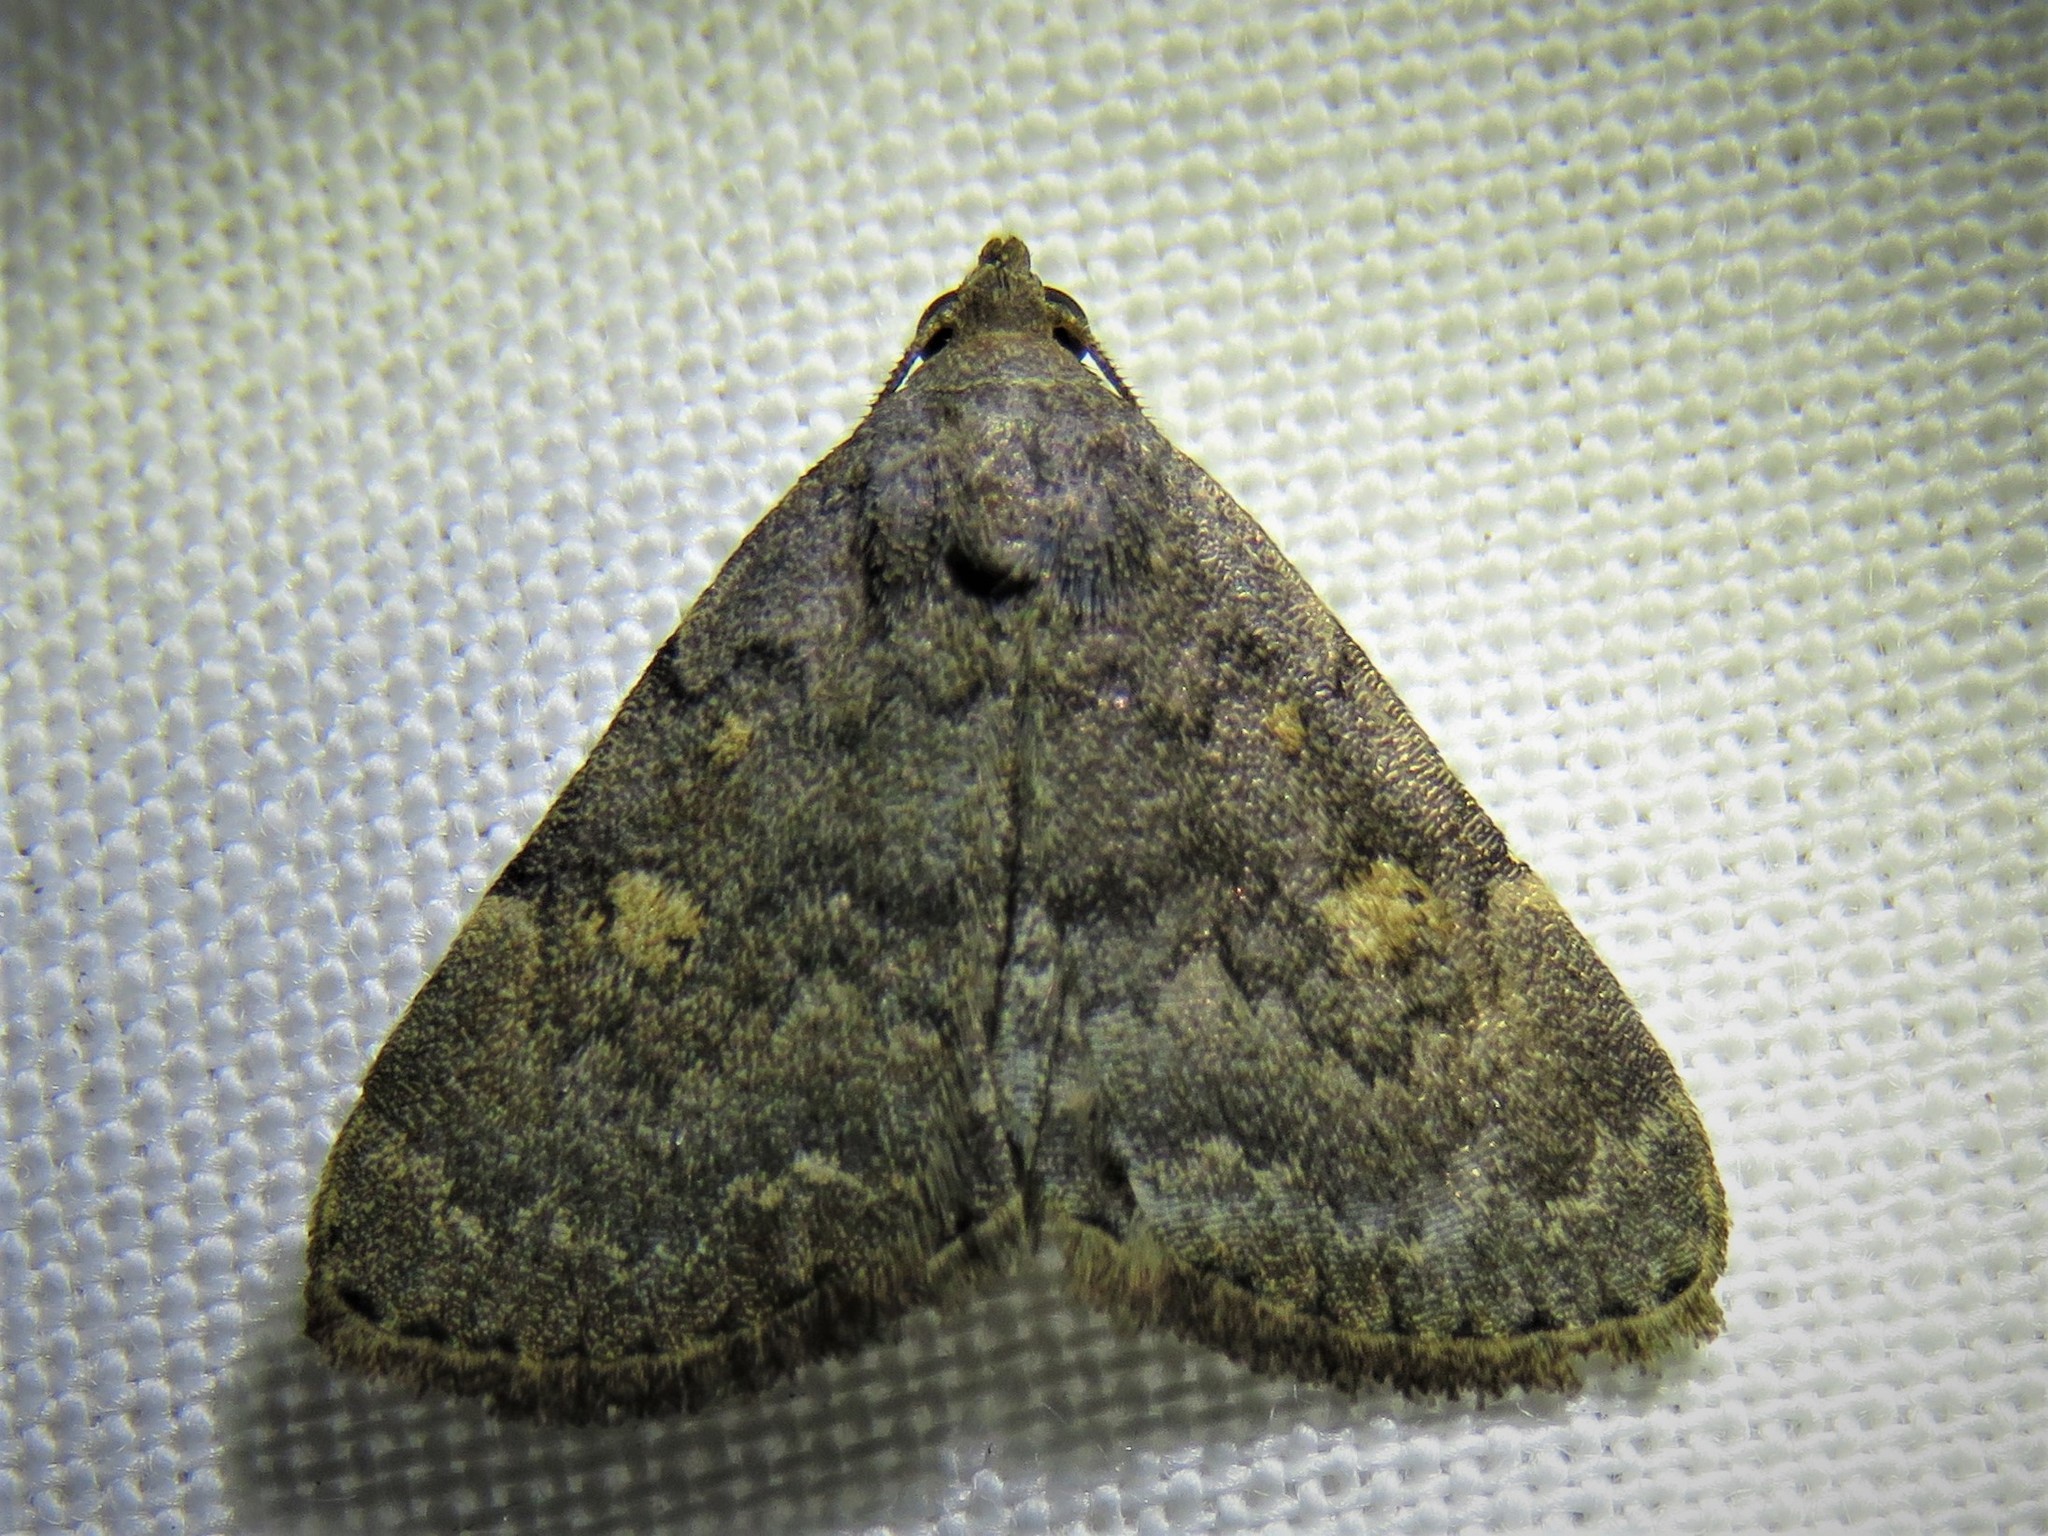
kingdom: Animalia
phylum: Arthropoda
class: Insecta
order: Lepidoptera
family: Erebidae
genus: Idia
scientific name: Idia aemula
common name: Common idia moth
